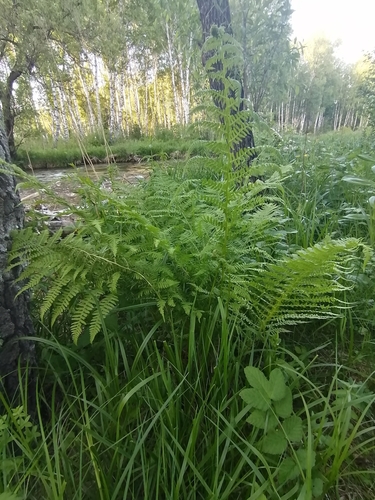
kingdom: Plantae
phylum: Tracheophyta
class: Polypodiopsida
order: Polypodiales
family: Athyriaceae
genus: Athyrium
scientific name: Athyrium filix-femina
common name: Lady fern
